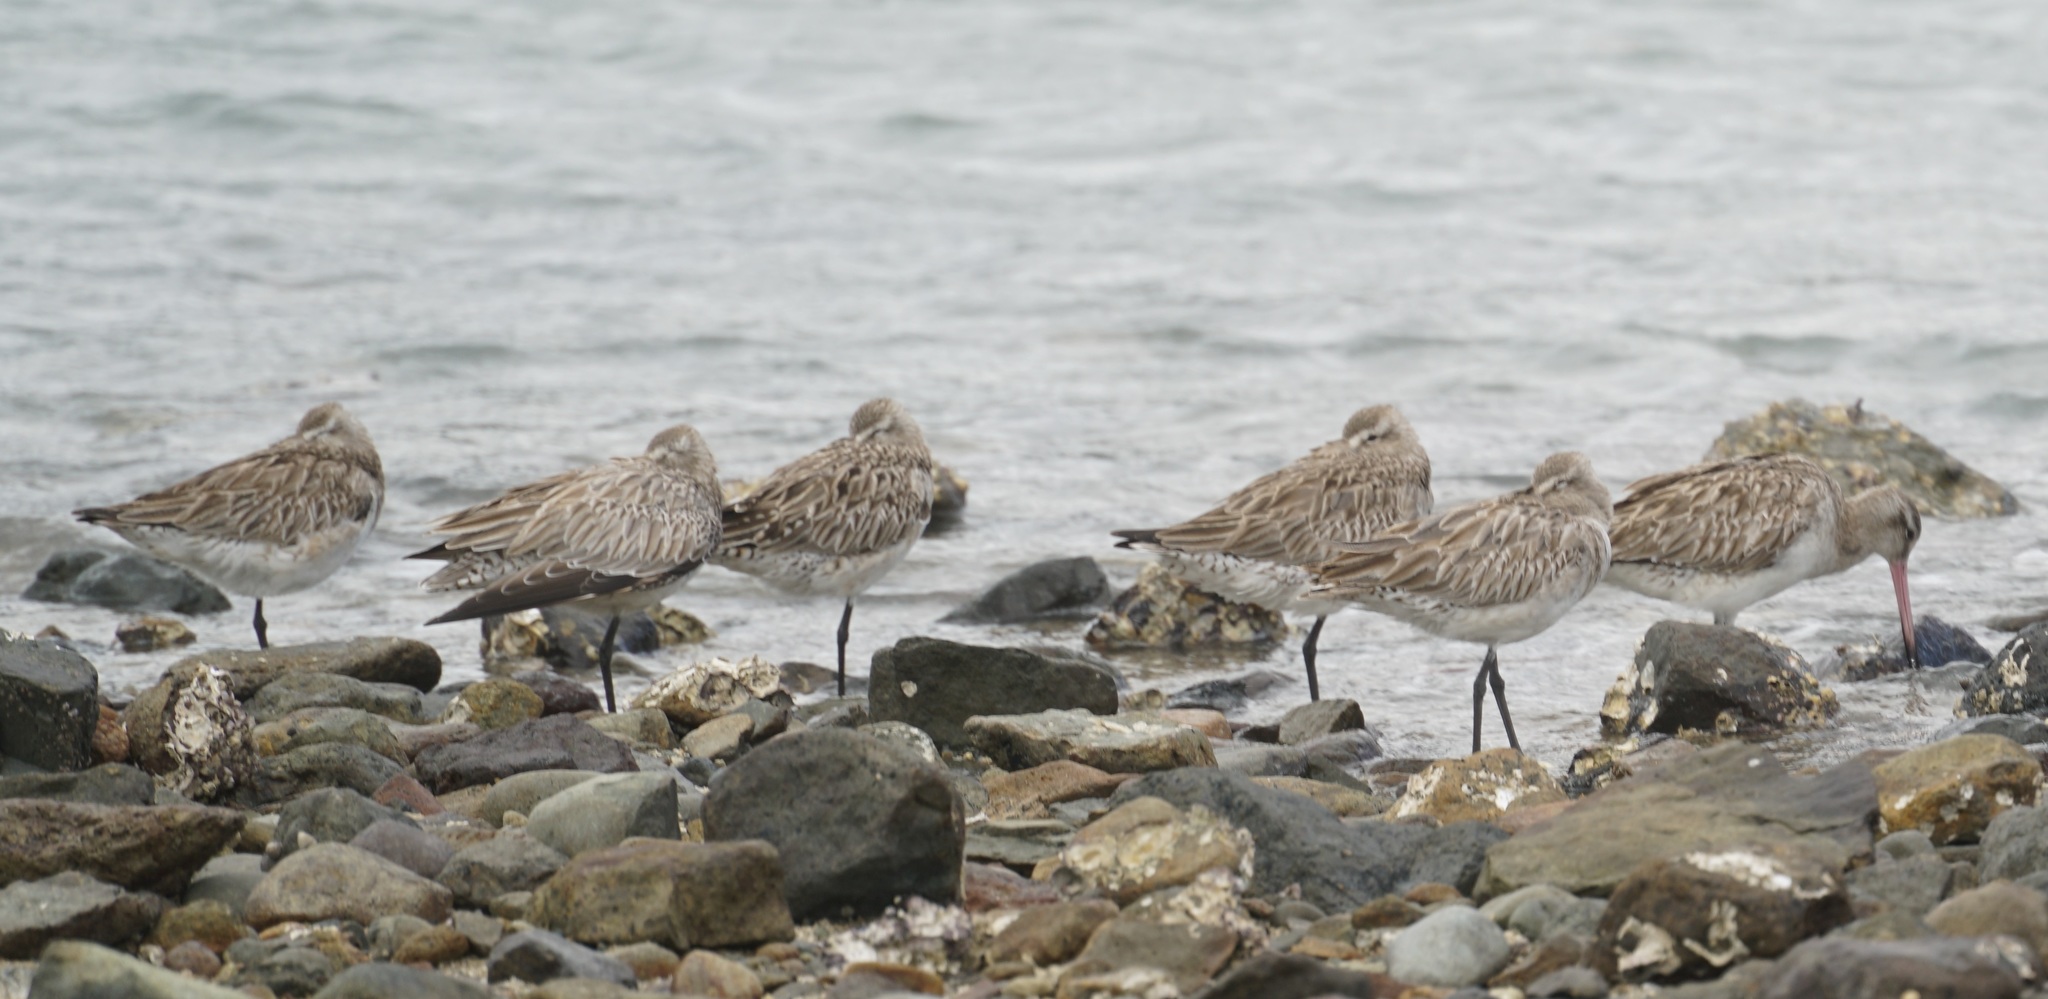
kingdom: Animalia
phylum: Chordata
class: Aves
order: Charadriiformes
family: Scolopacidae
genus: Limosa
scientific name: Limosa lapponica
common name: Bar-tailed godwit
